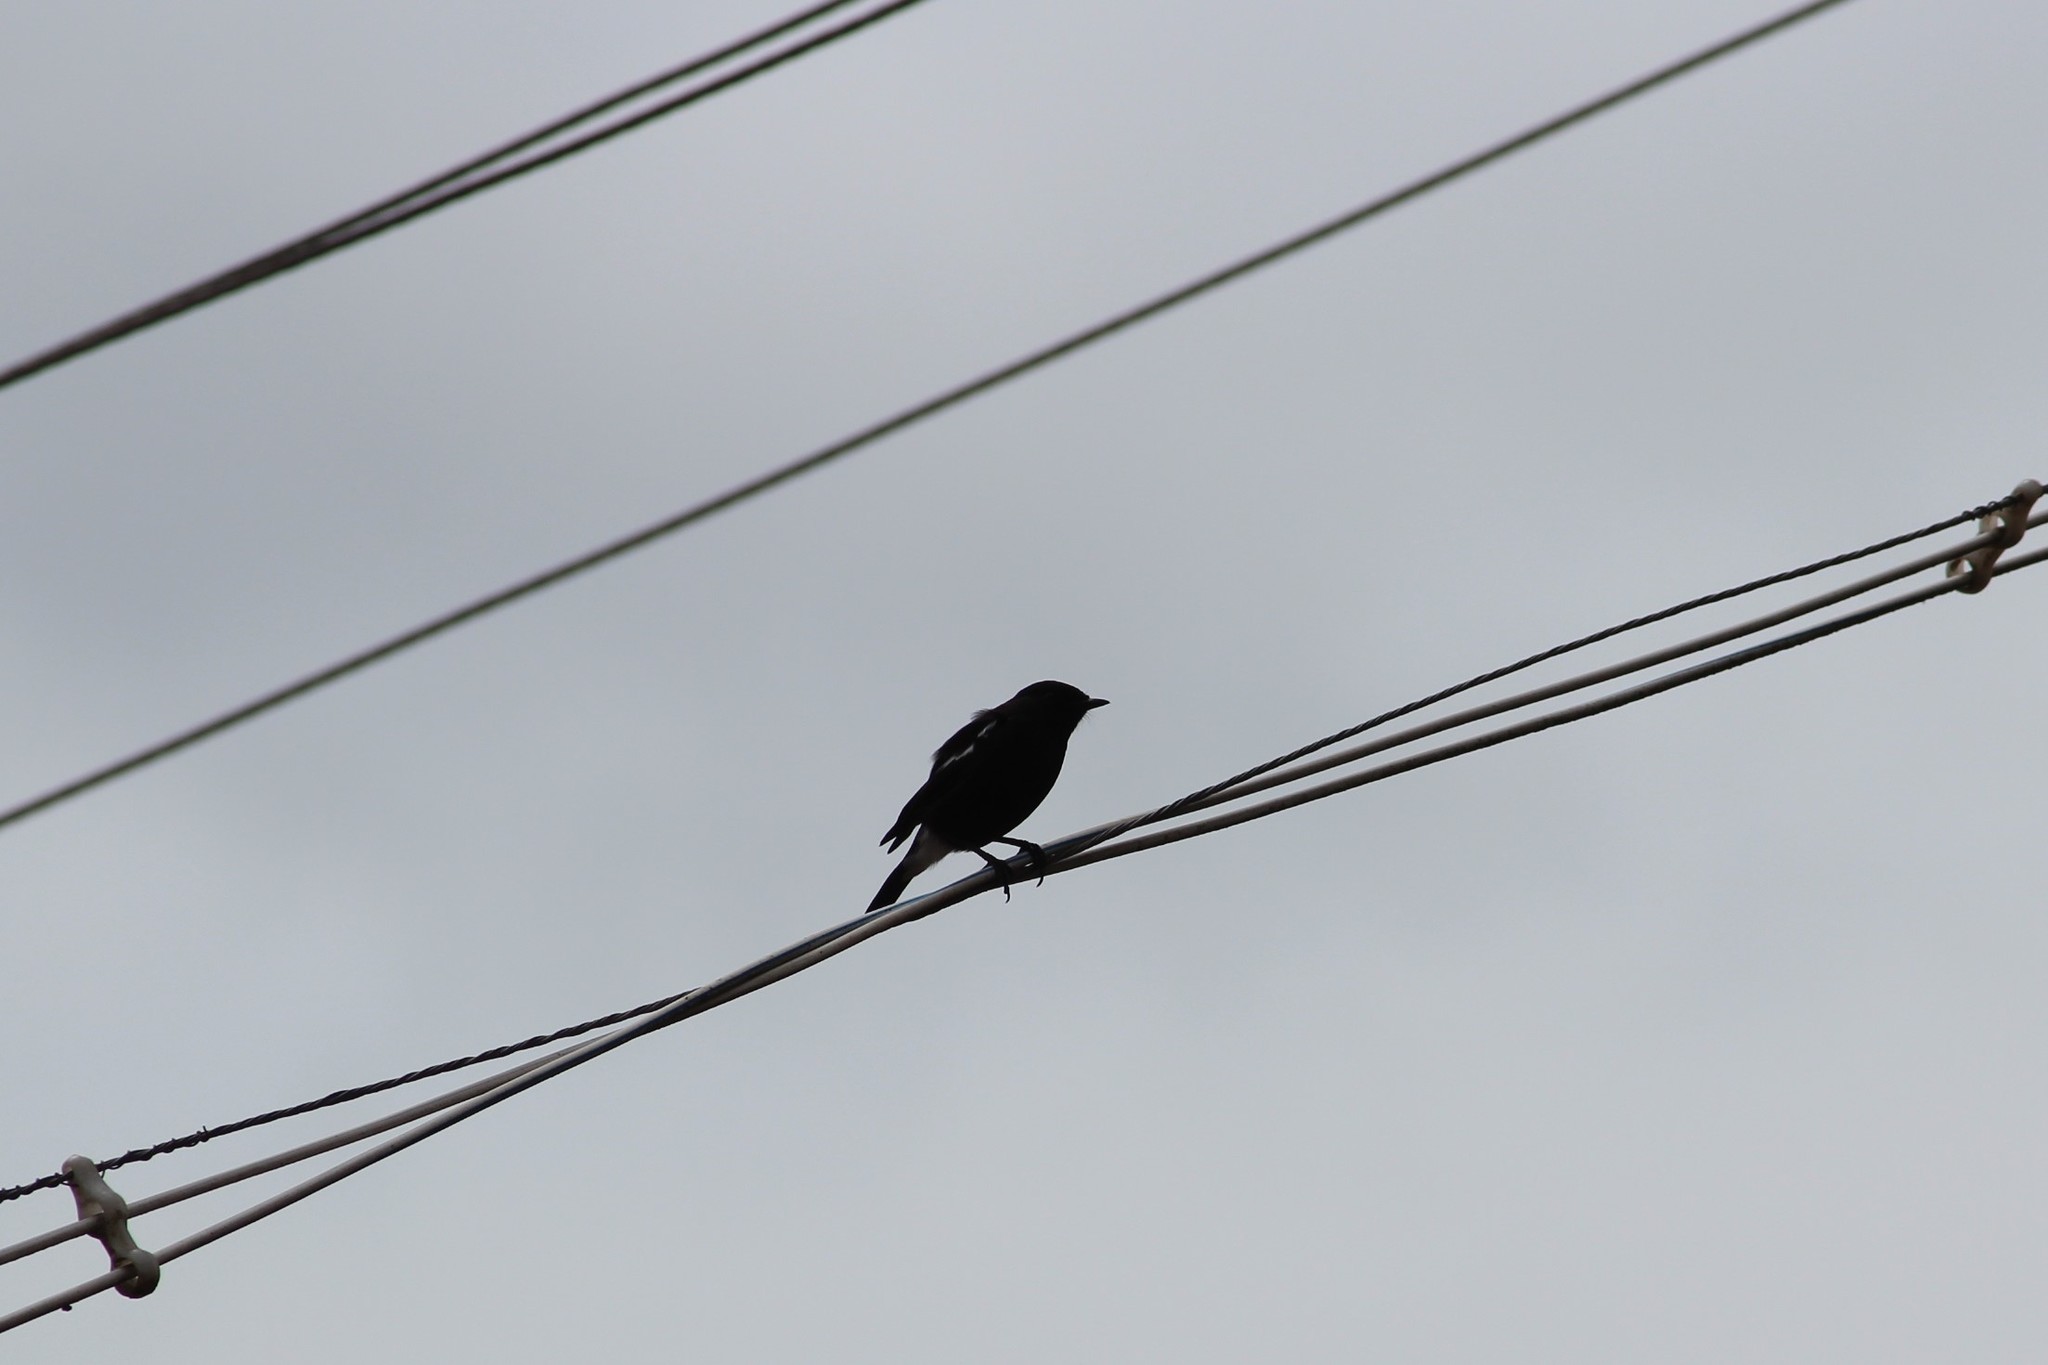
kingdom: Animalia
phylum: Chordata
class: Aves
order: Passeriformes
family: Muscicapidae
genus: Saxicola
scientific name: Saxicola caprata
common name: Pied bush chat
